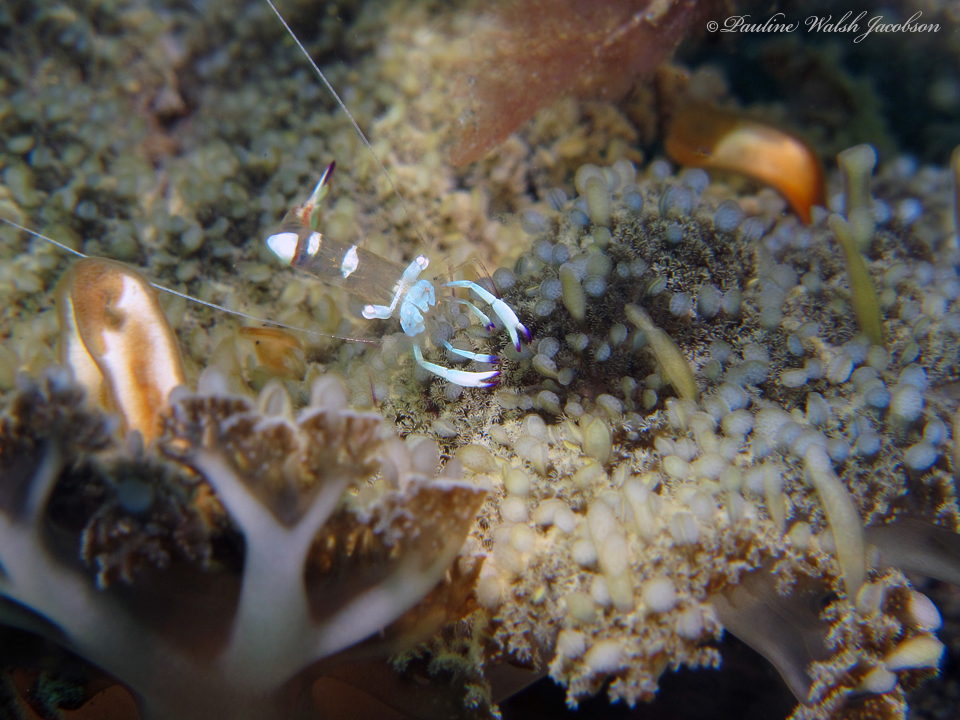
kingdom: Animalia
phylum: Arthropoda
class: Malacostraca
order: Decapoda
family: Palaemonidae
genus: Ancylomenes
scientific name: Ancylomenes magnificus
